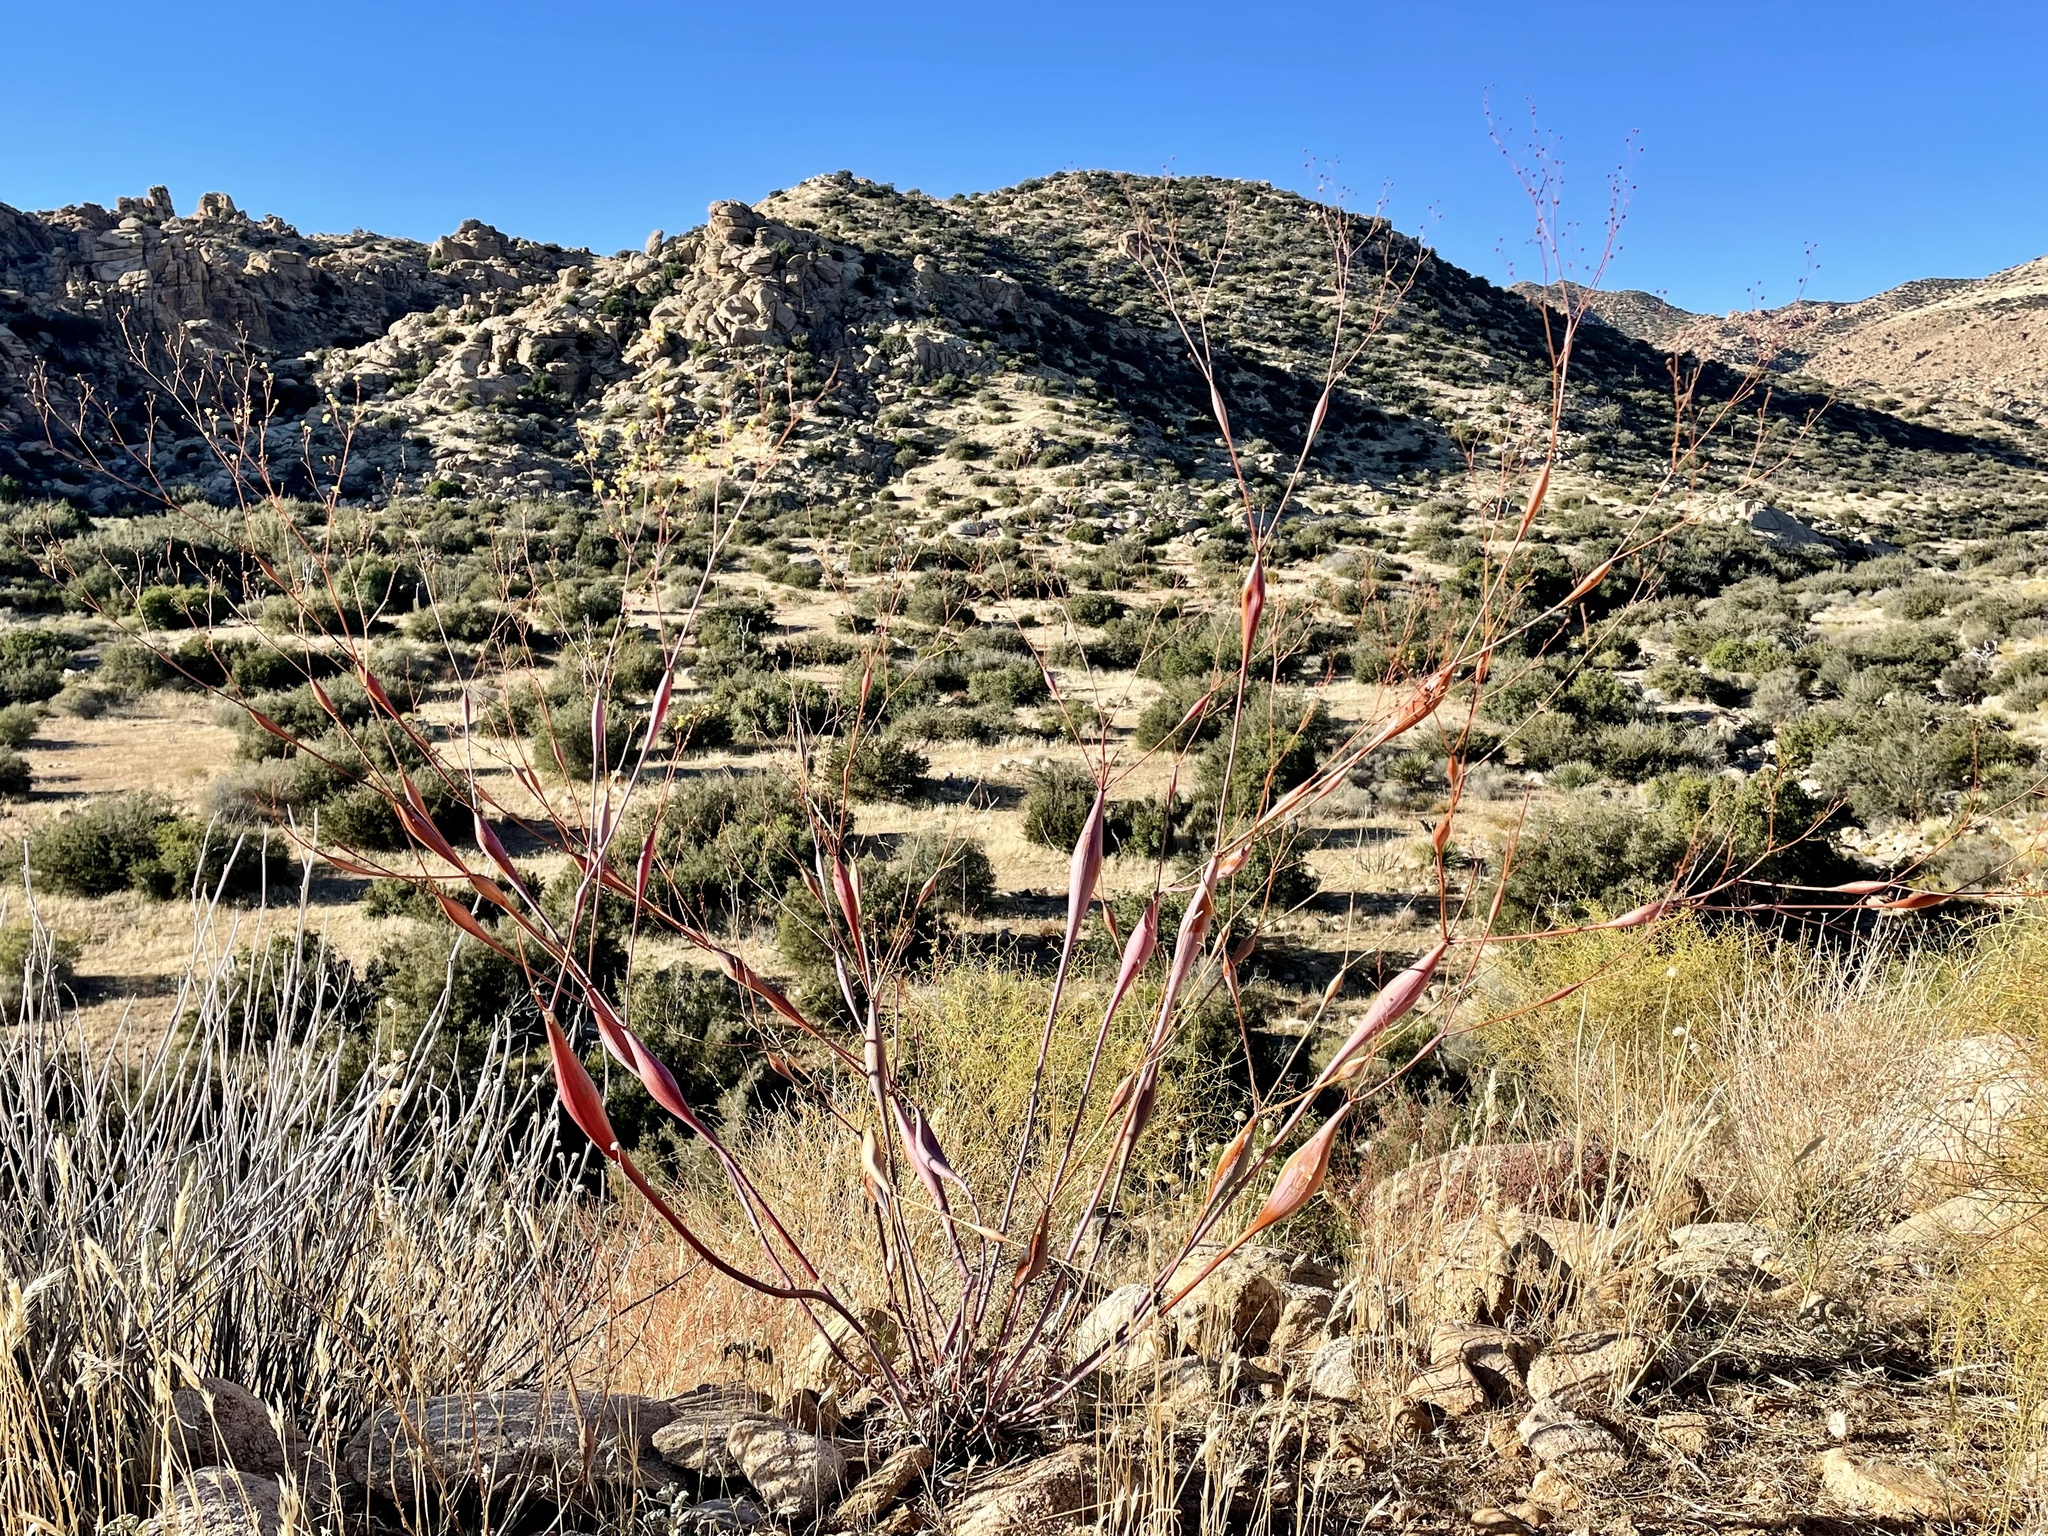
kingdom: Plantae
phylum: Tracheophyta
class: Magnoliopsida
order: Caryophyllales
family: Polygonaceae
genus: Eriogonum
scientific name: Eriogonum inflatum
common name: Desert trumpet
